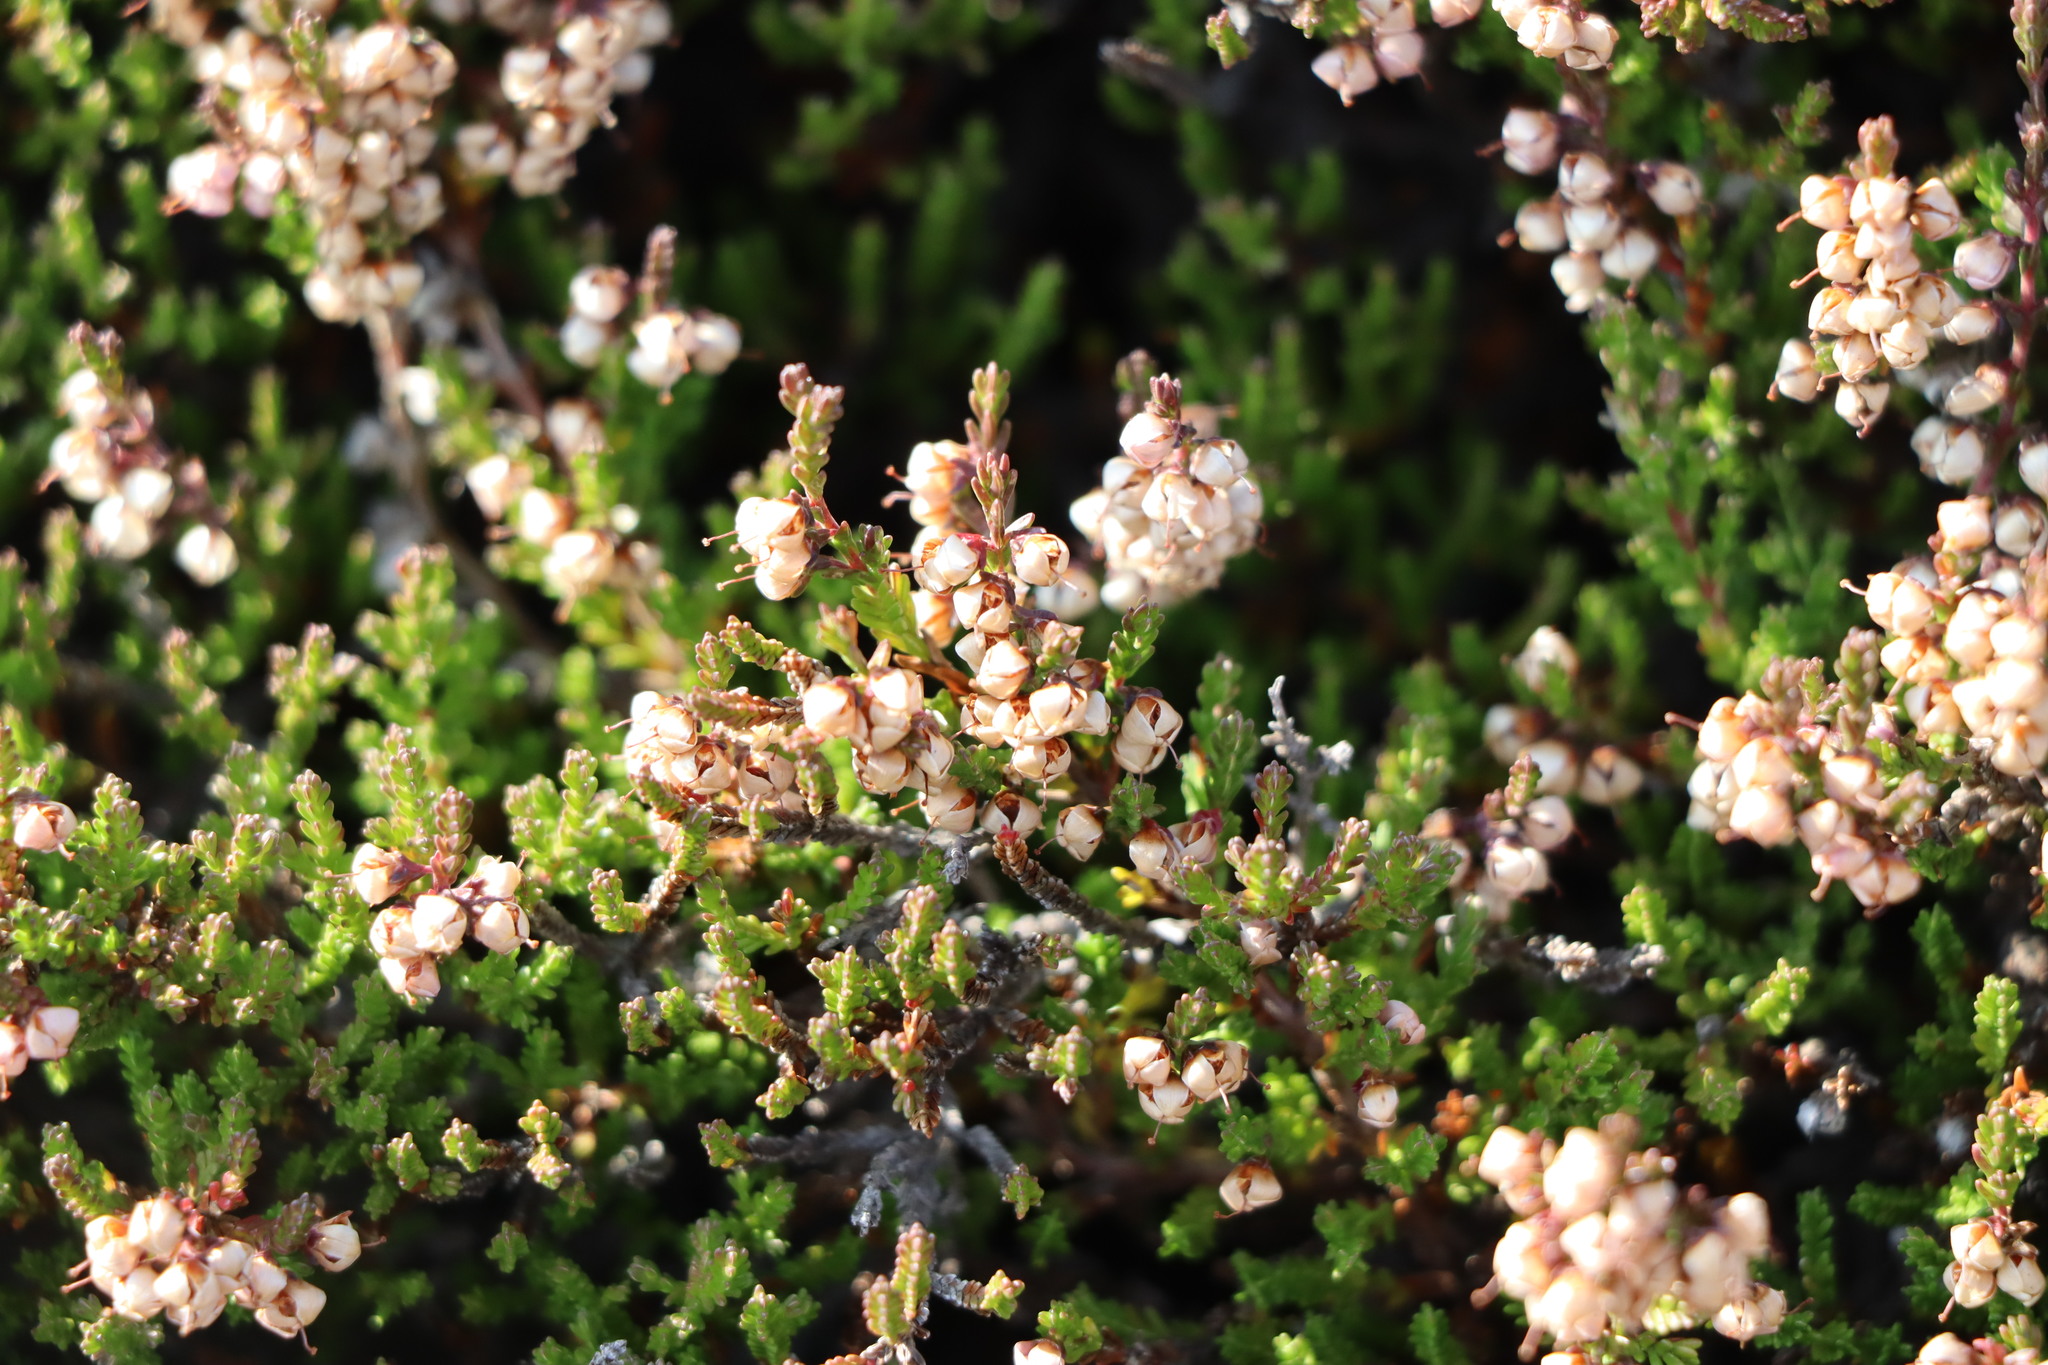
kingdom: Plantae
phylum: Tracheophyta
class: Magnoliopsida
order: Ericales
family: Ericaceae
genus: Calluna
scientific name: Calluna vulgaris
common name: Heather
